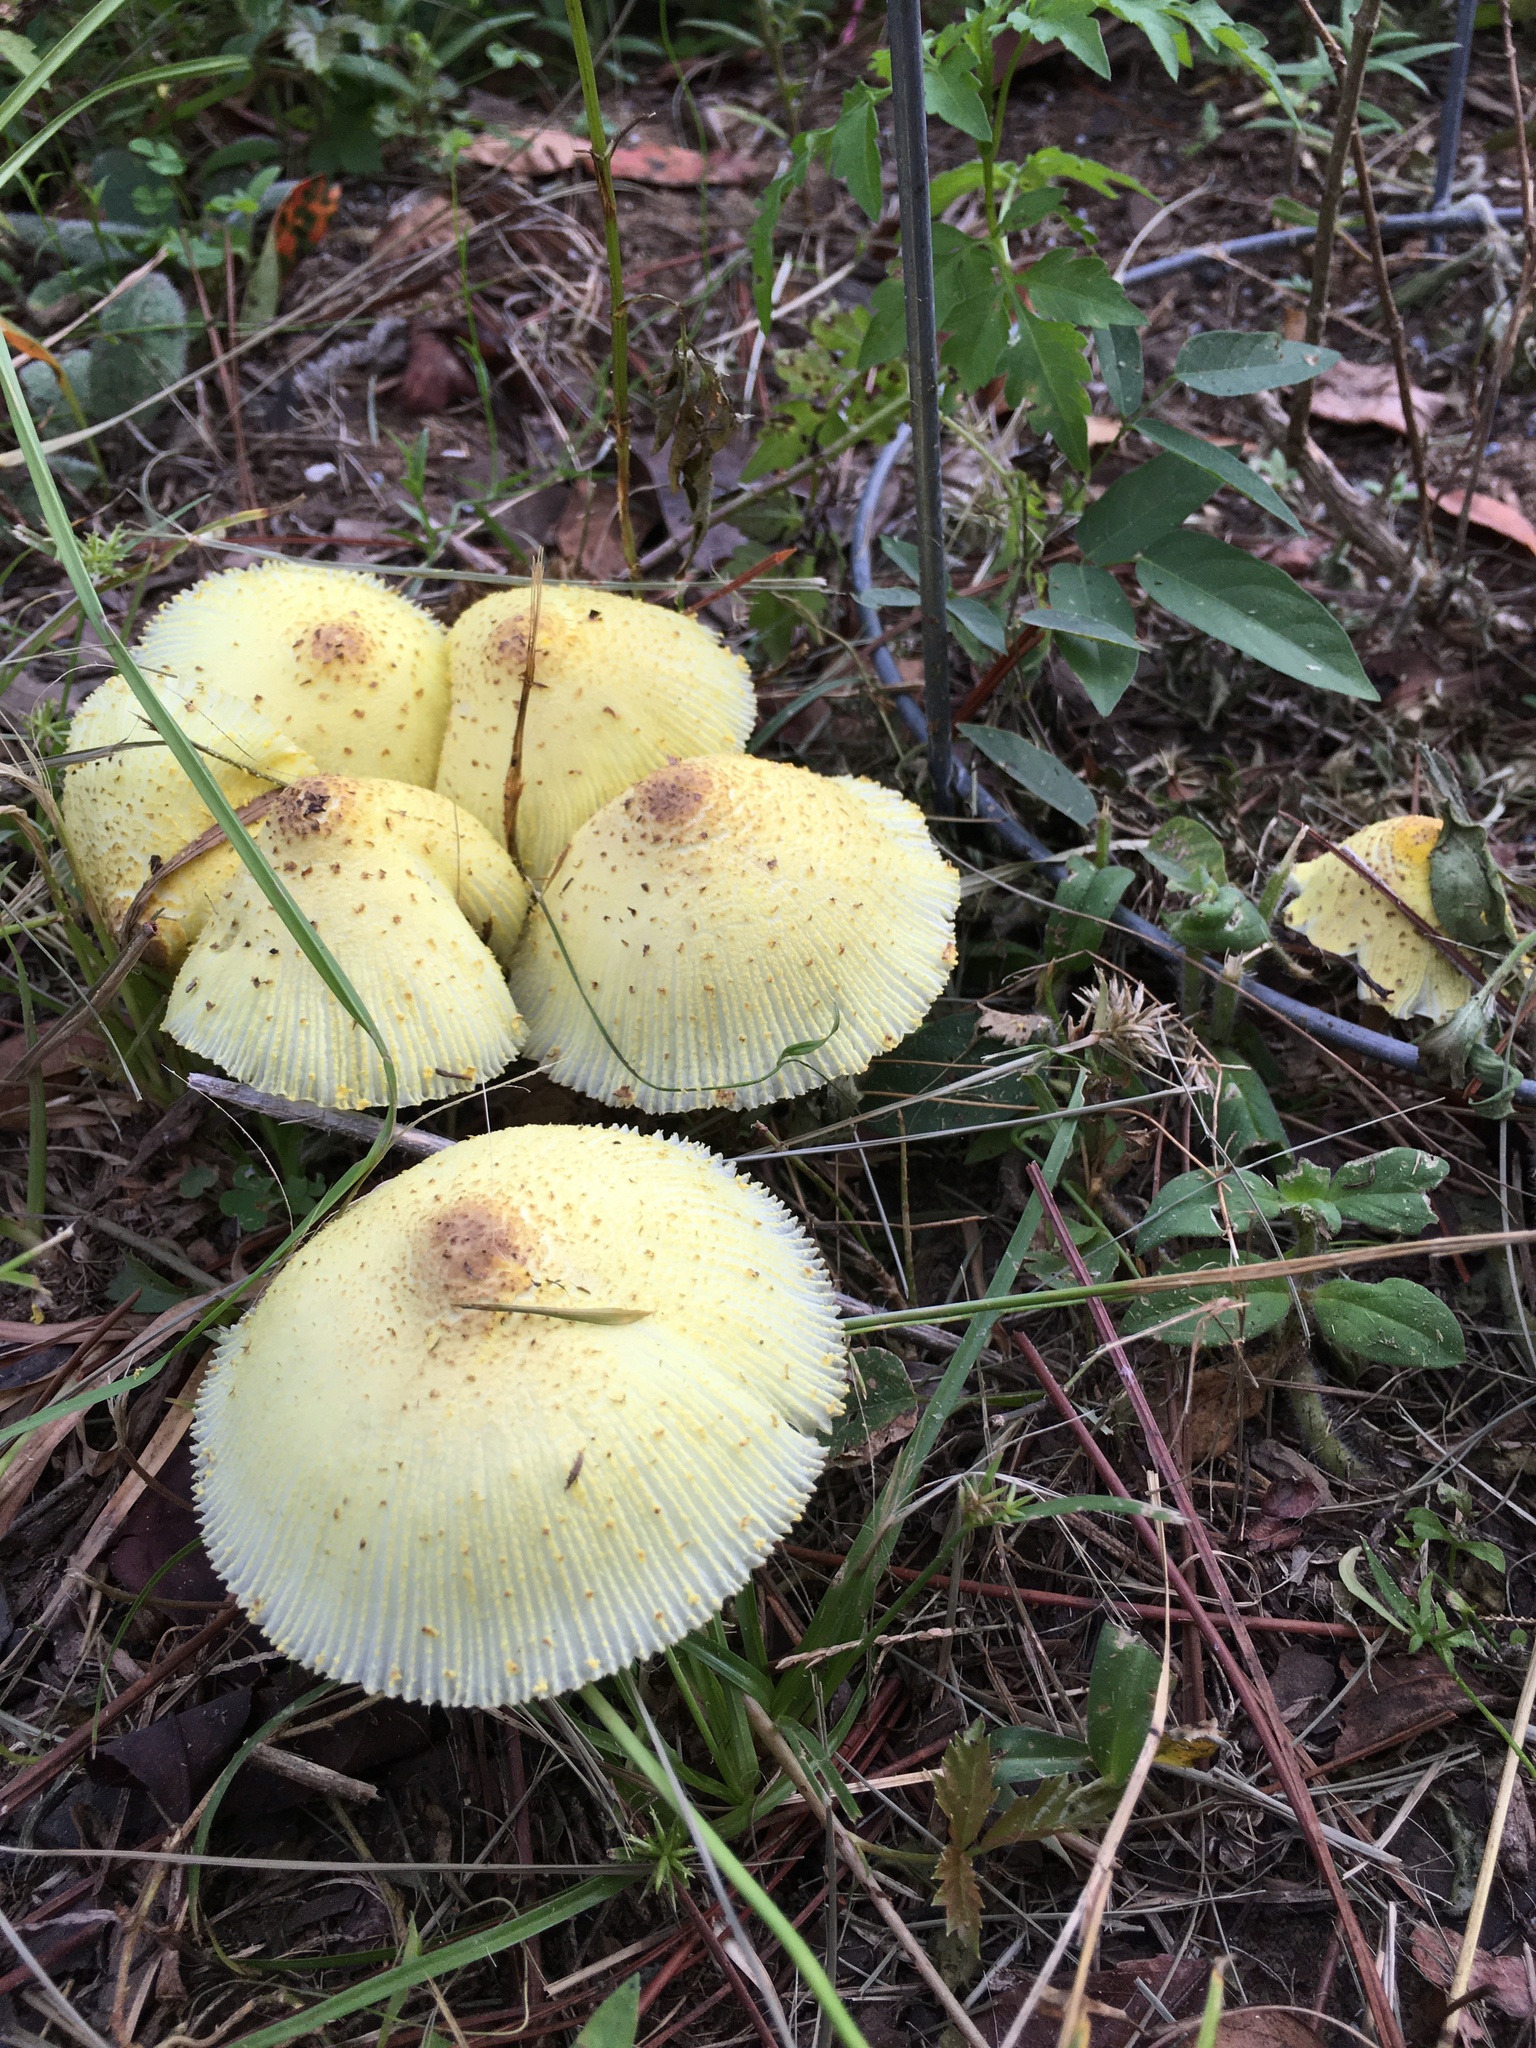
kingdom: Fungi
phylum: Basidiomycota
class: Agaricomycetes
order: Agaricales
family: Agaricaceae
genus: Leucocoprinus
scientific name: Leucocoprinus birnbaumii
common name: Plantpot dapperling
